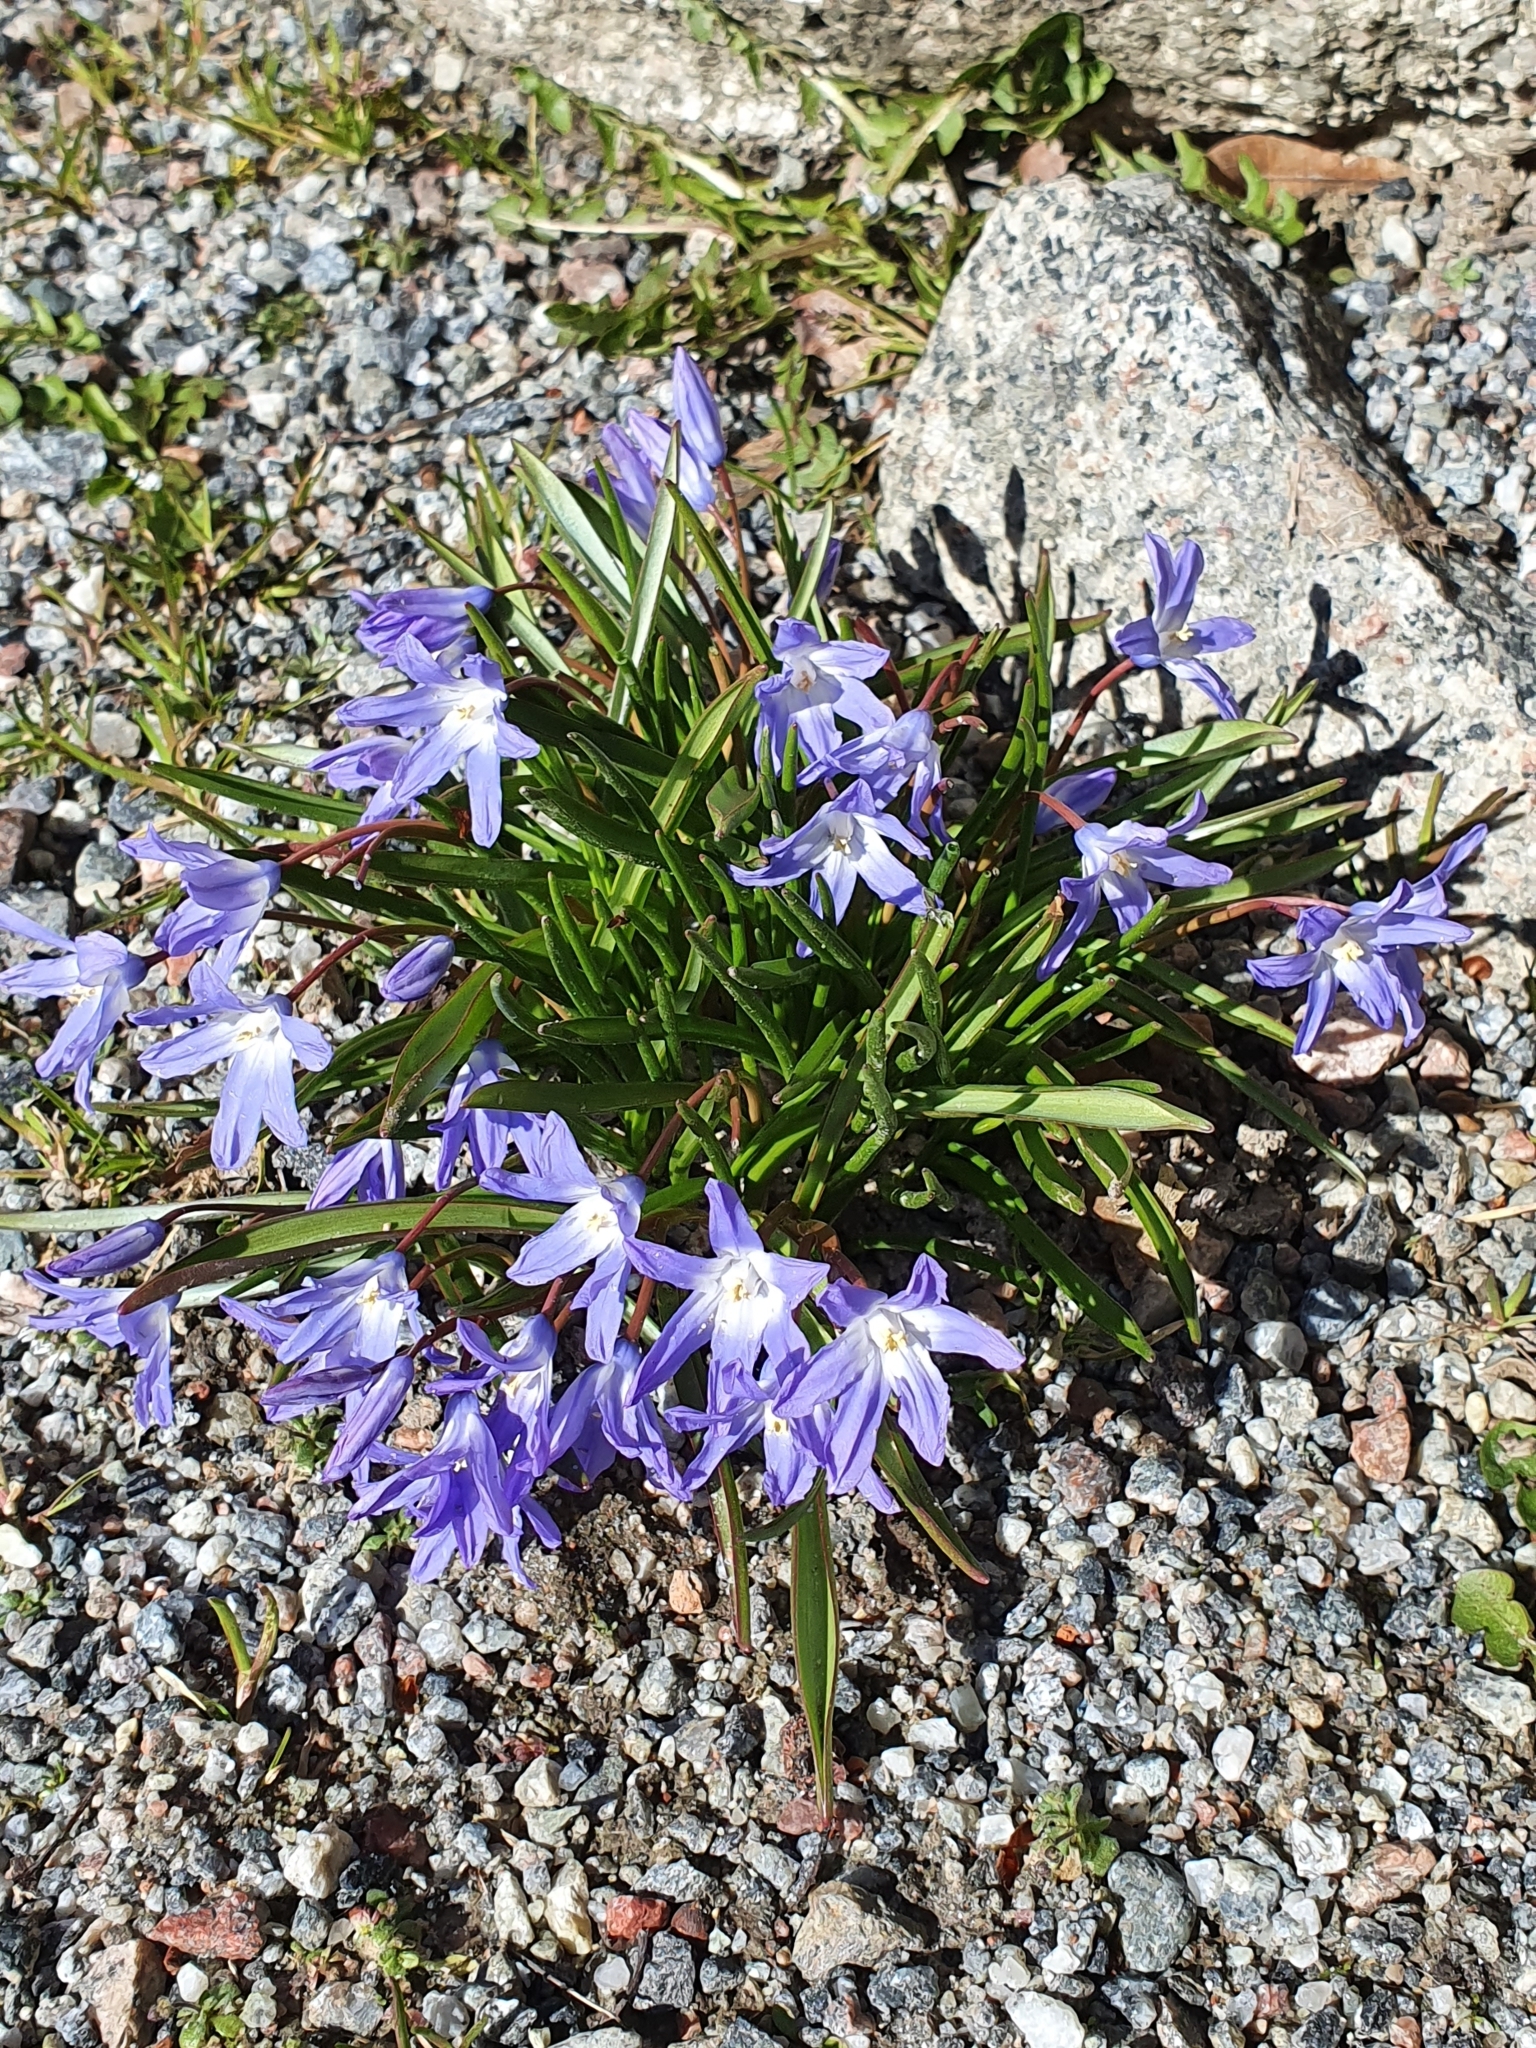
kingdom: Plantae
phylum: Tracheophyta
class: Liliopsida
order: Asparagales
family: Asparagaceae
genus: Scilla
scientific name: Scilla forbesii
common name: Glory-of-the-snow
